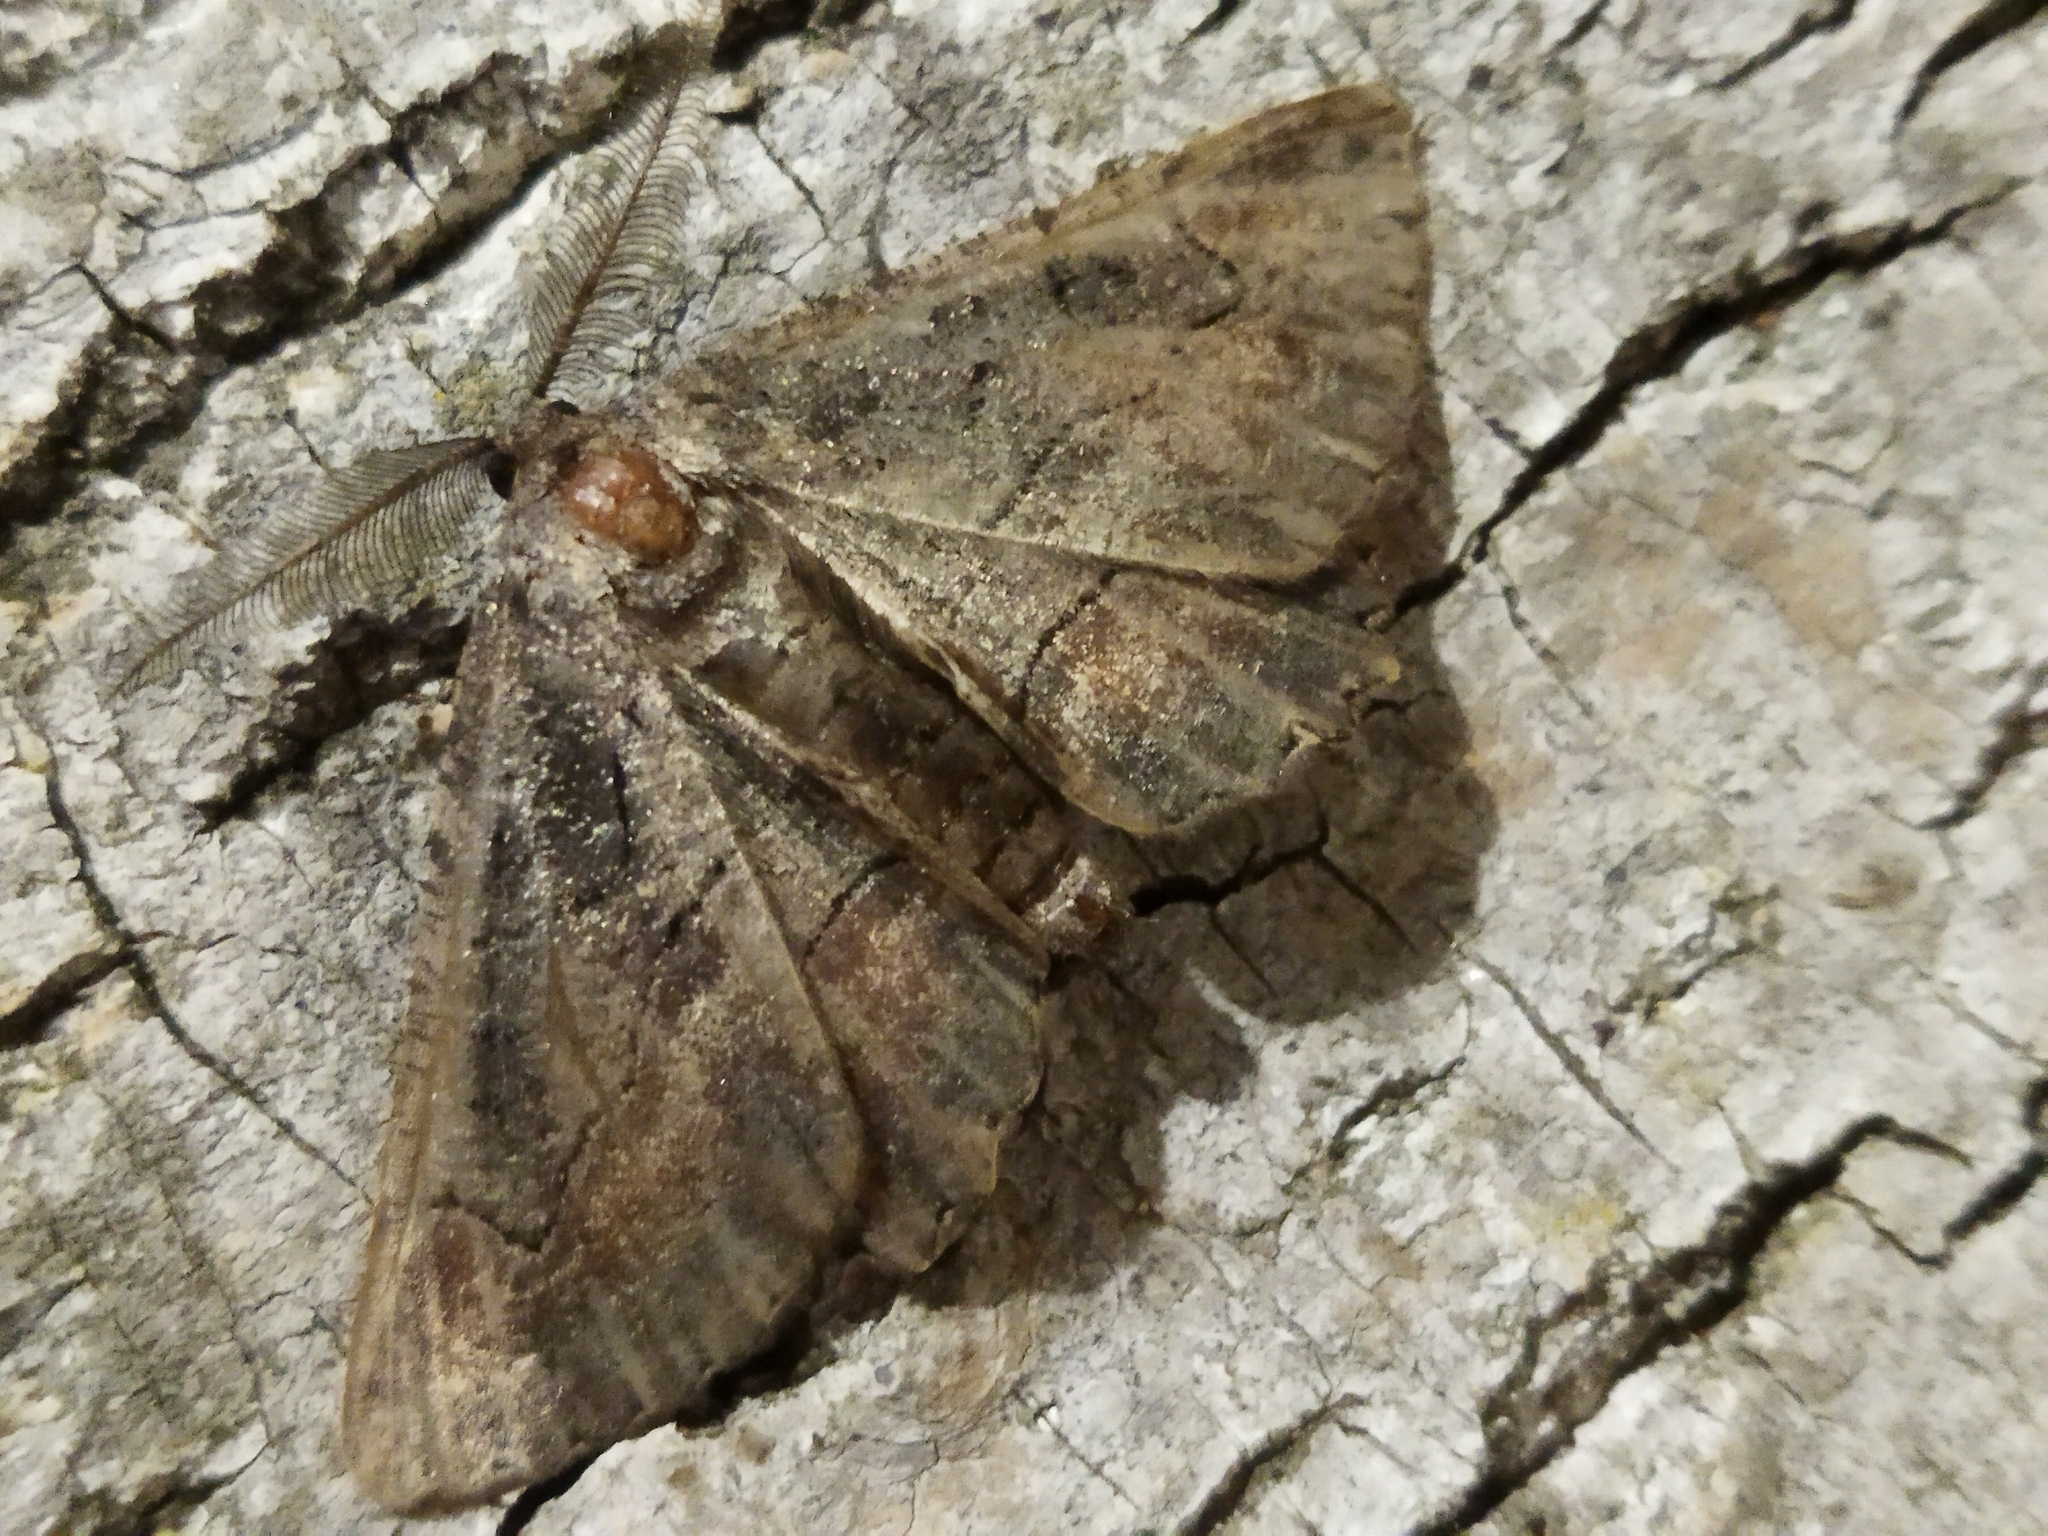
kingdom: Animalia
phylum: Arthropoda
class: Insecta
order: Lepidoptera
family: Geometridae
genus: Nychiodes
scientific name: Nychiodes waltheri
